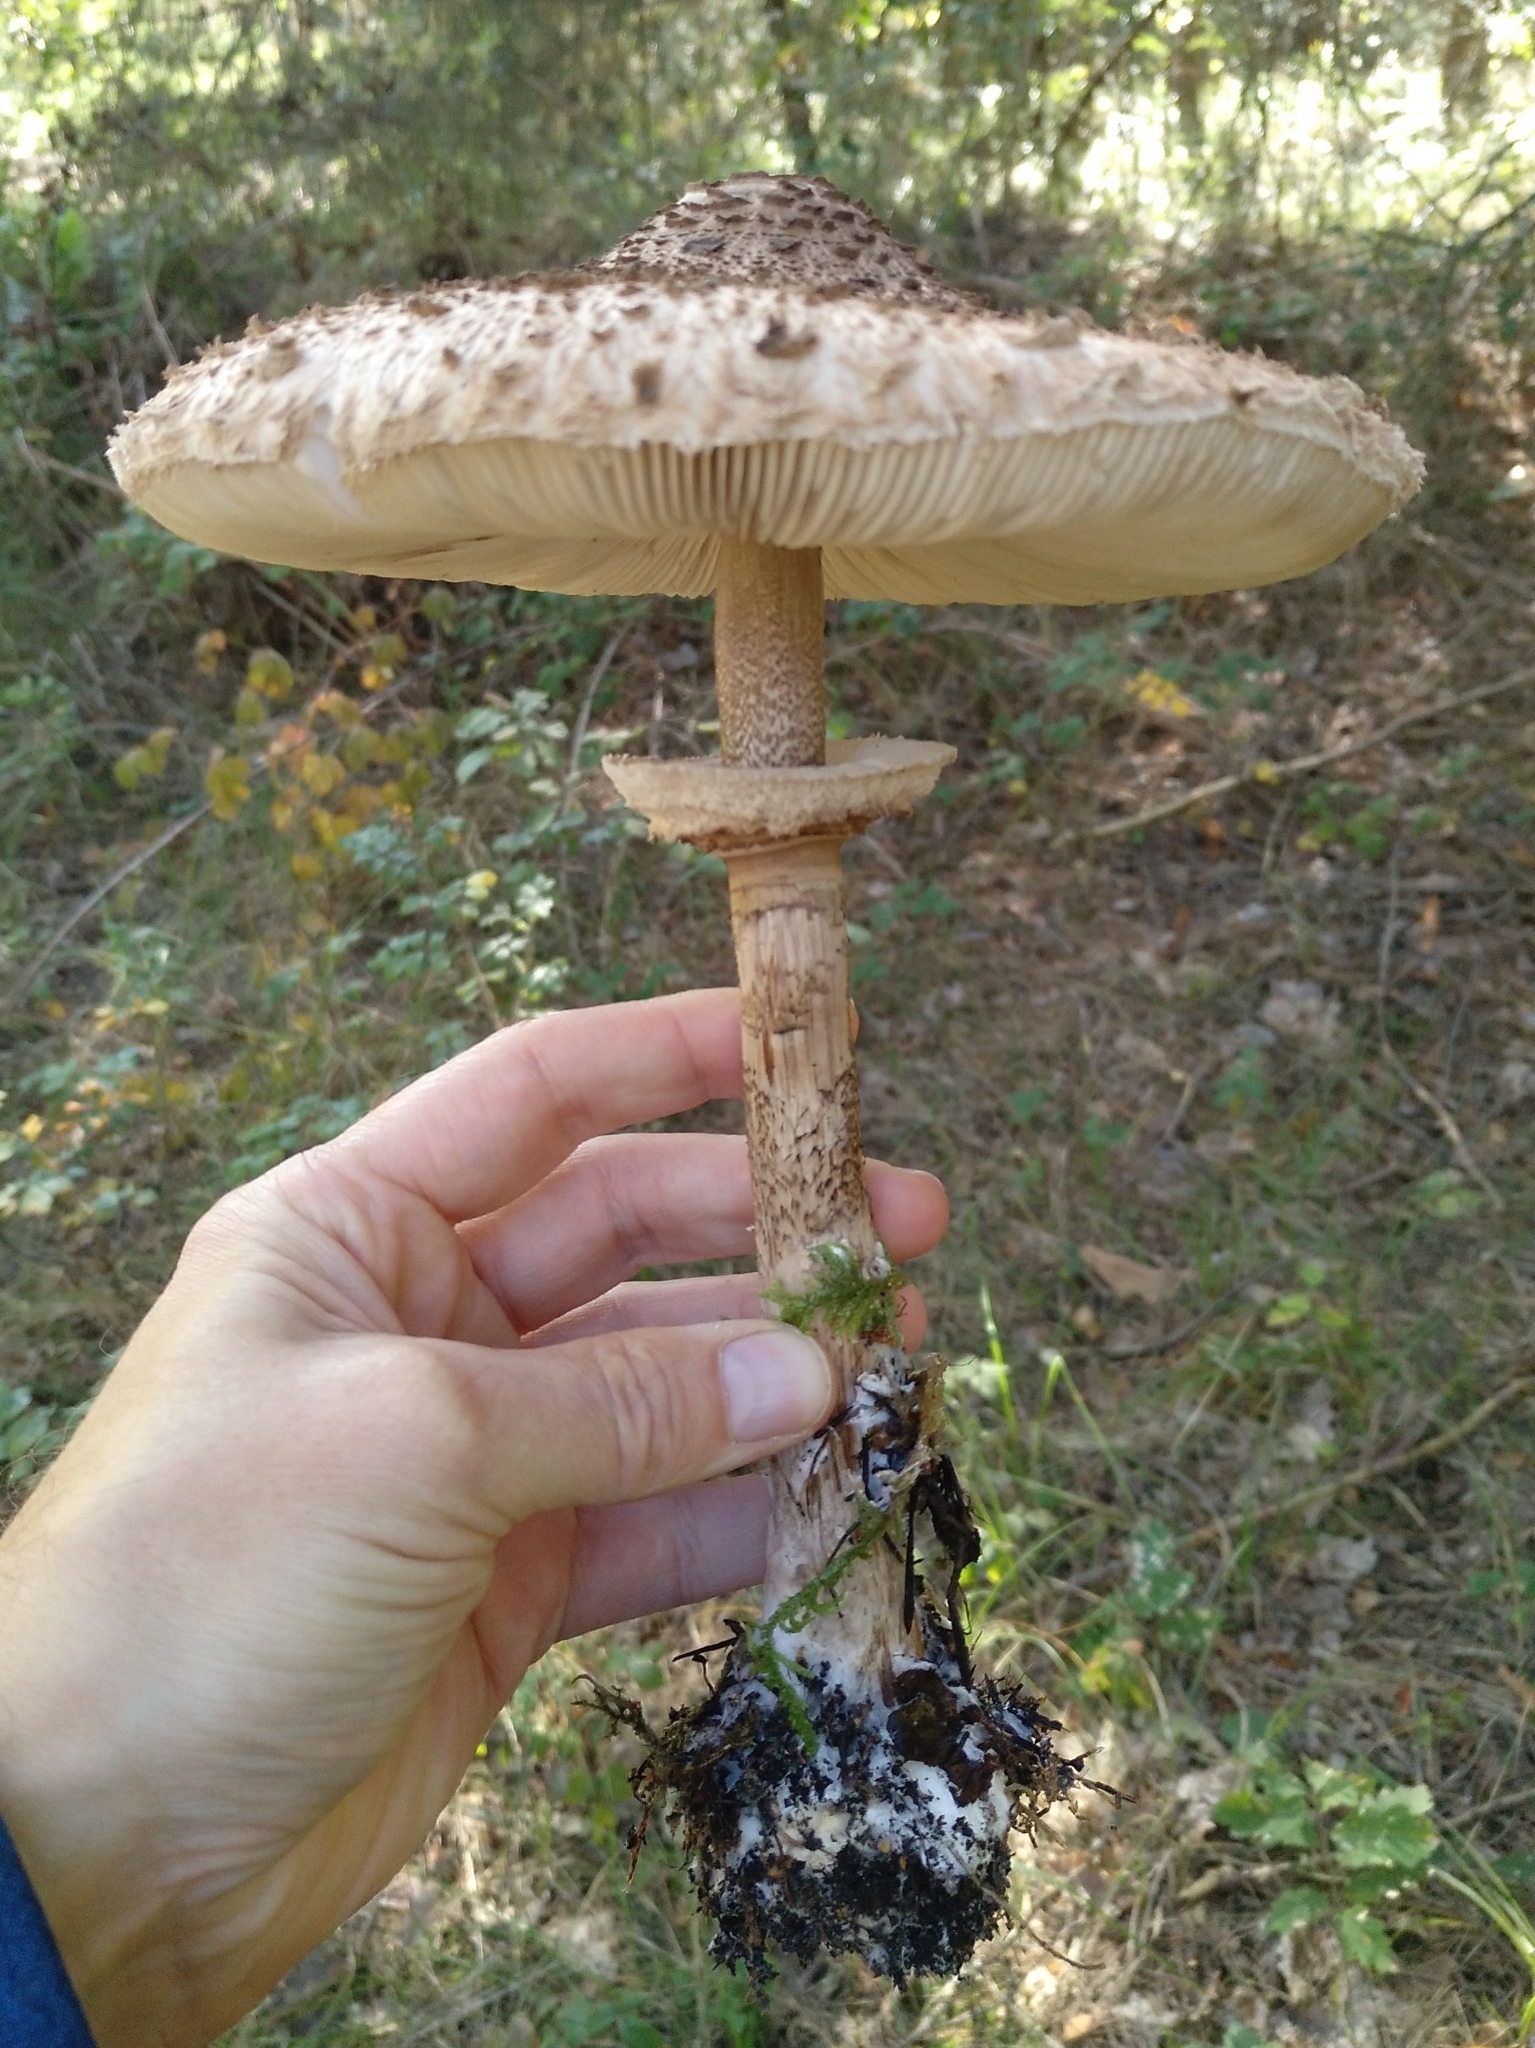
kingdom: Fungi
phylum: Basidiomycota
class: Agaricomycetes
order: Agaricales
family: Agaricaceae
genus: Macrolepiota
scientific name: Macrolepiota procera
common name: Parasol
